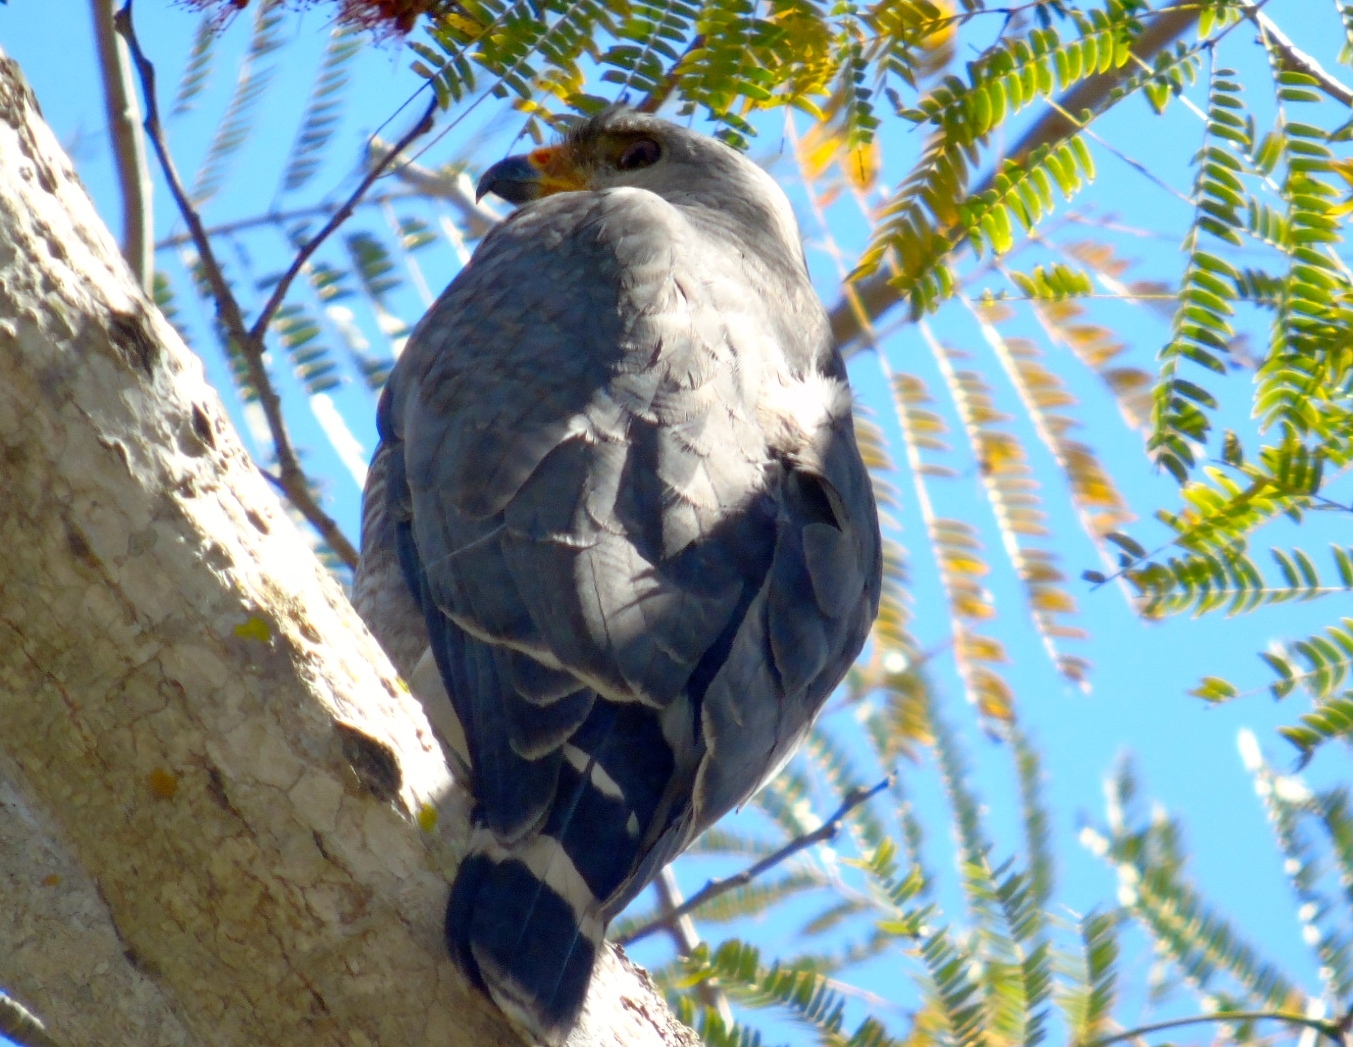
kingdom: Animalia
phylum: Chordata
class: Aves
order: Accipitriformes
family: Accipitridae
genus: Buteo
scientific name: Buteo nitidus
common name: Grey-lined hawk
